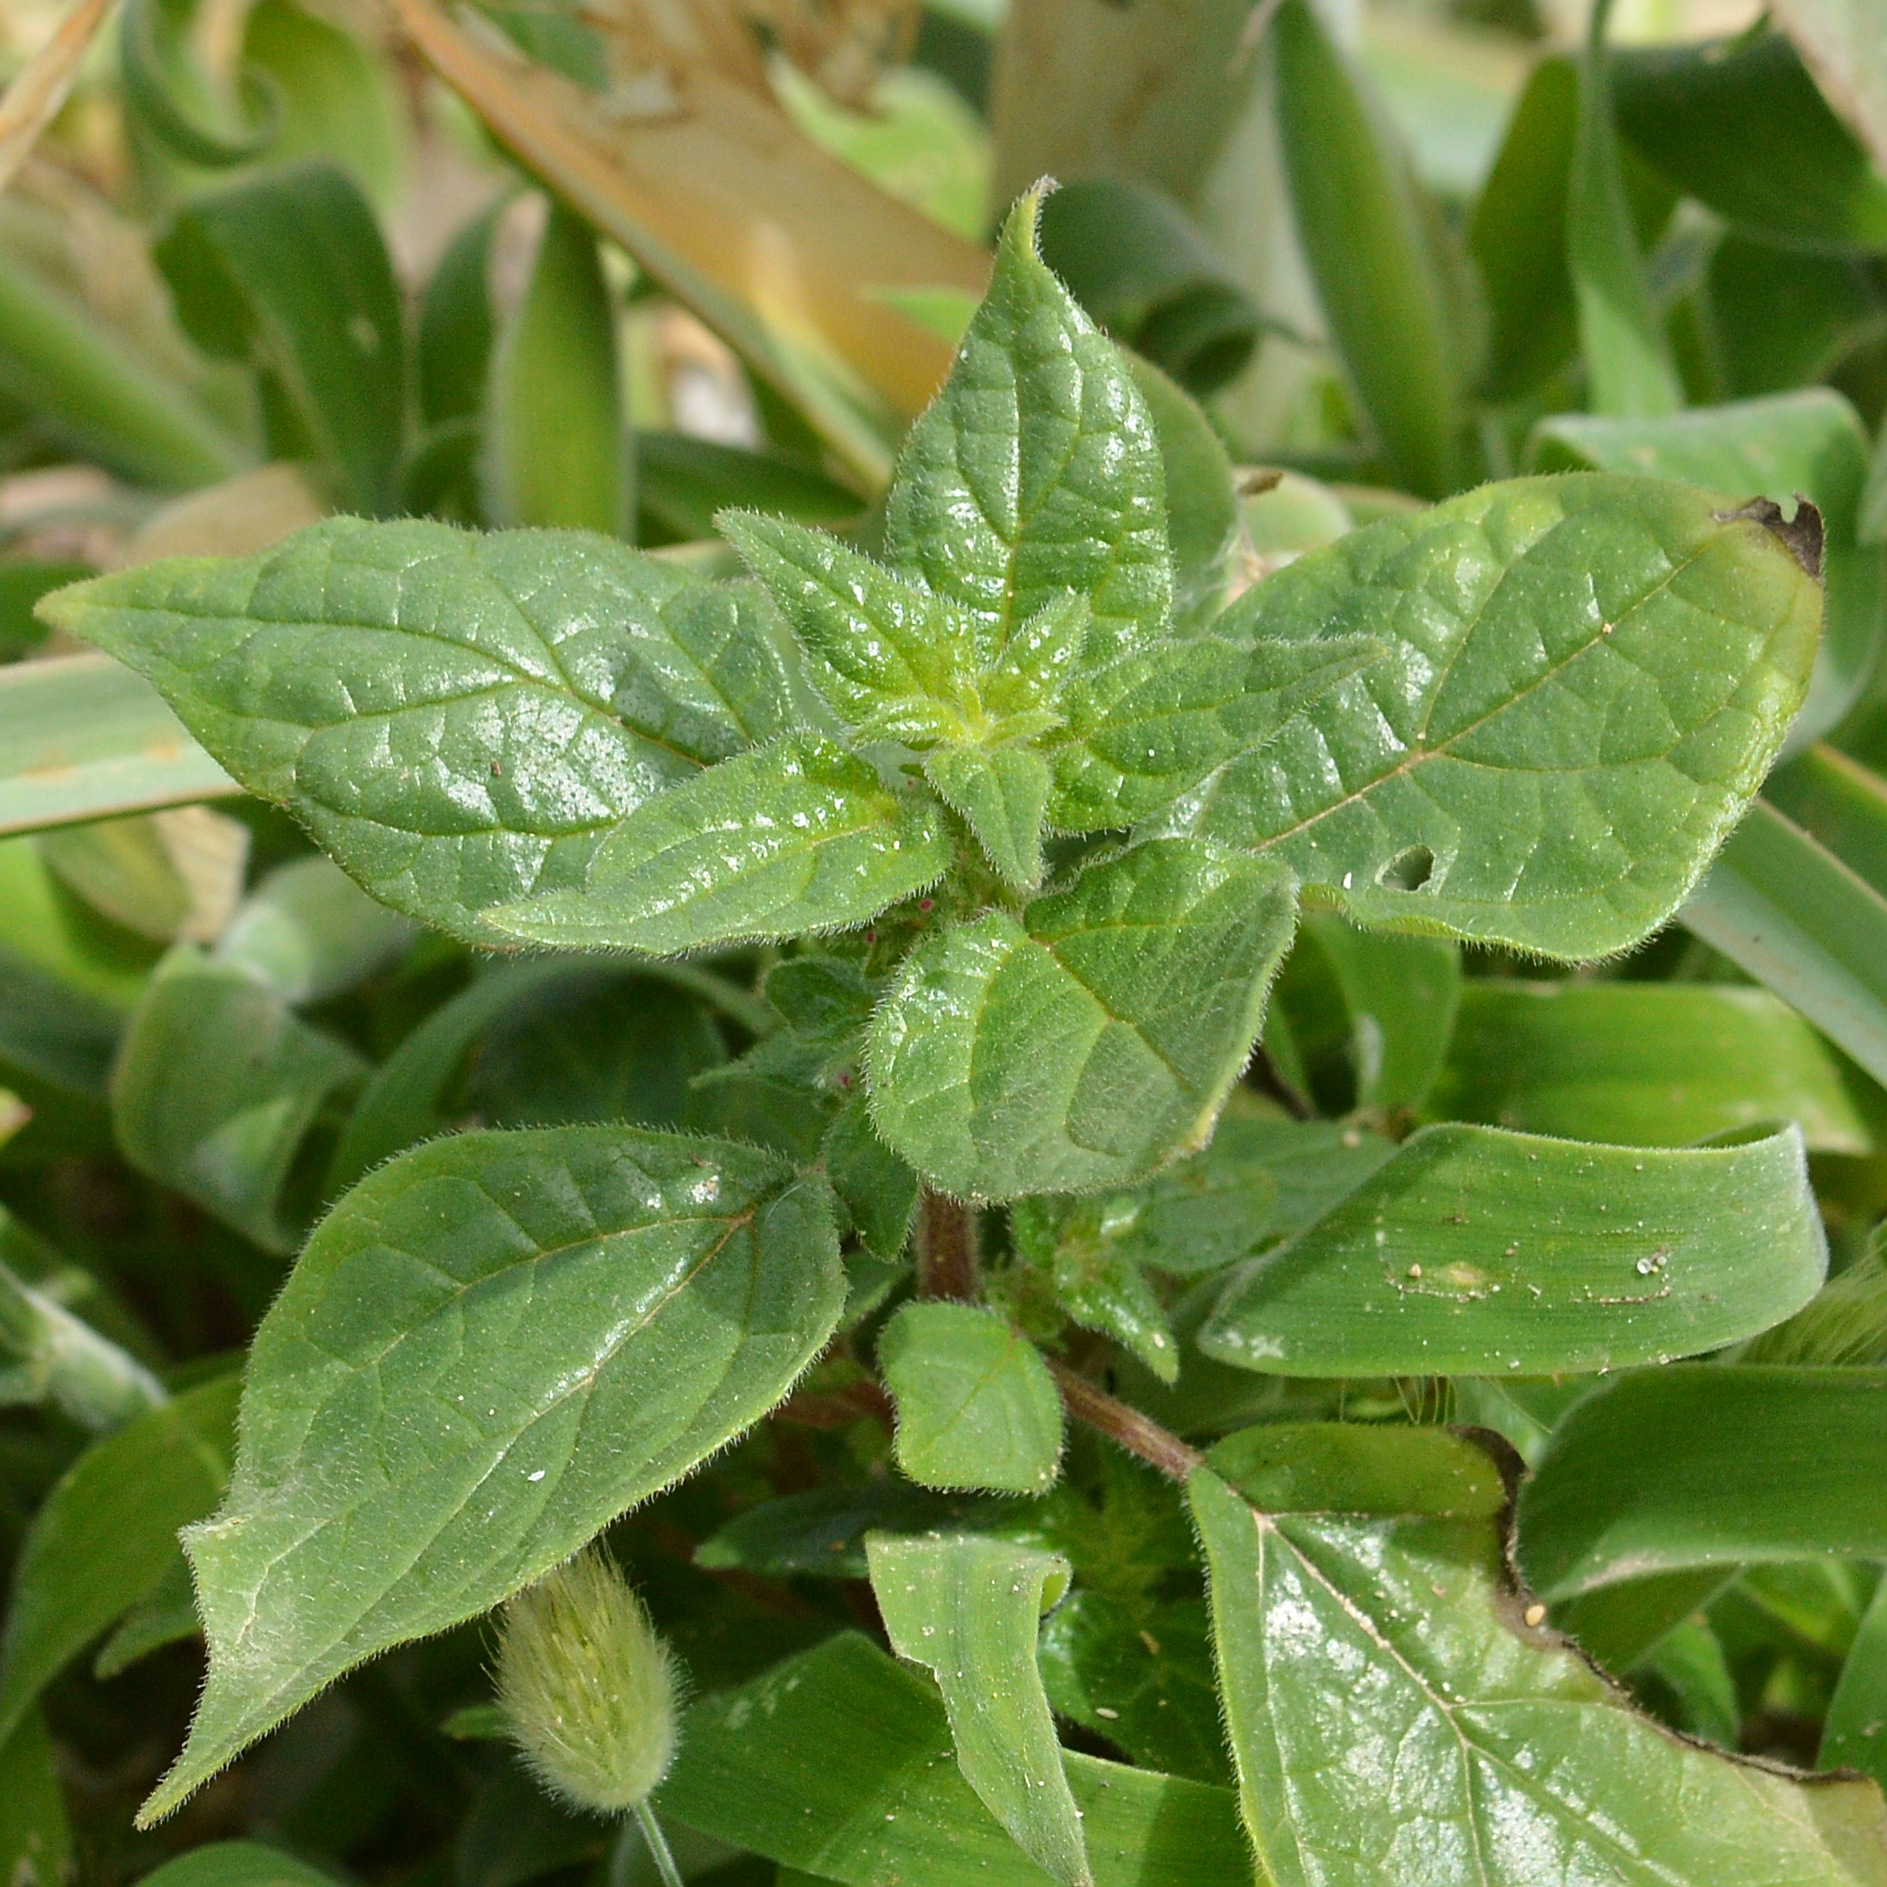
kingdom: Plantae
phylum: Tracheophyta
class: Magnoliopsida
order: Rosales
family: Urticaceae
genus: Parietaria
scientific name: Parietaria judaica
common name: Pellitory-of-the-wall
